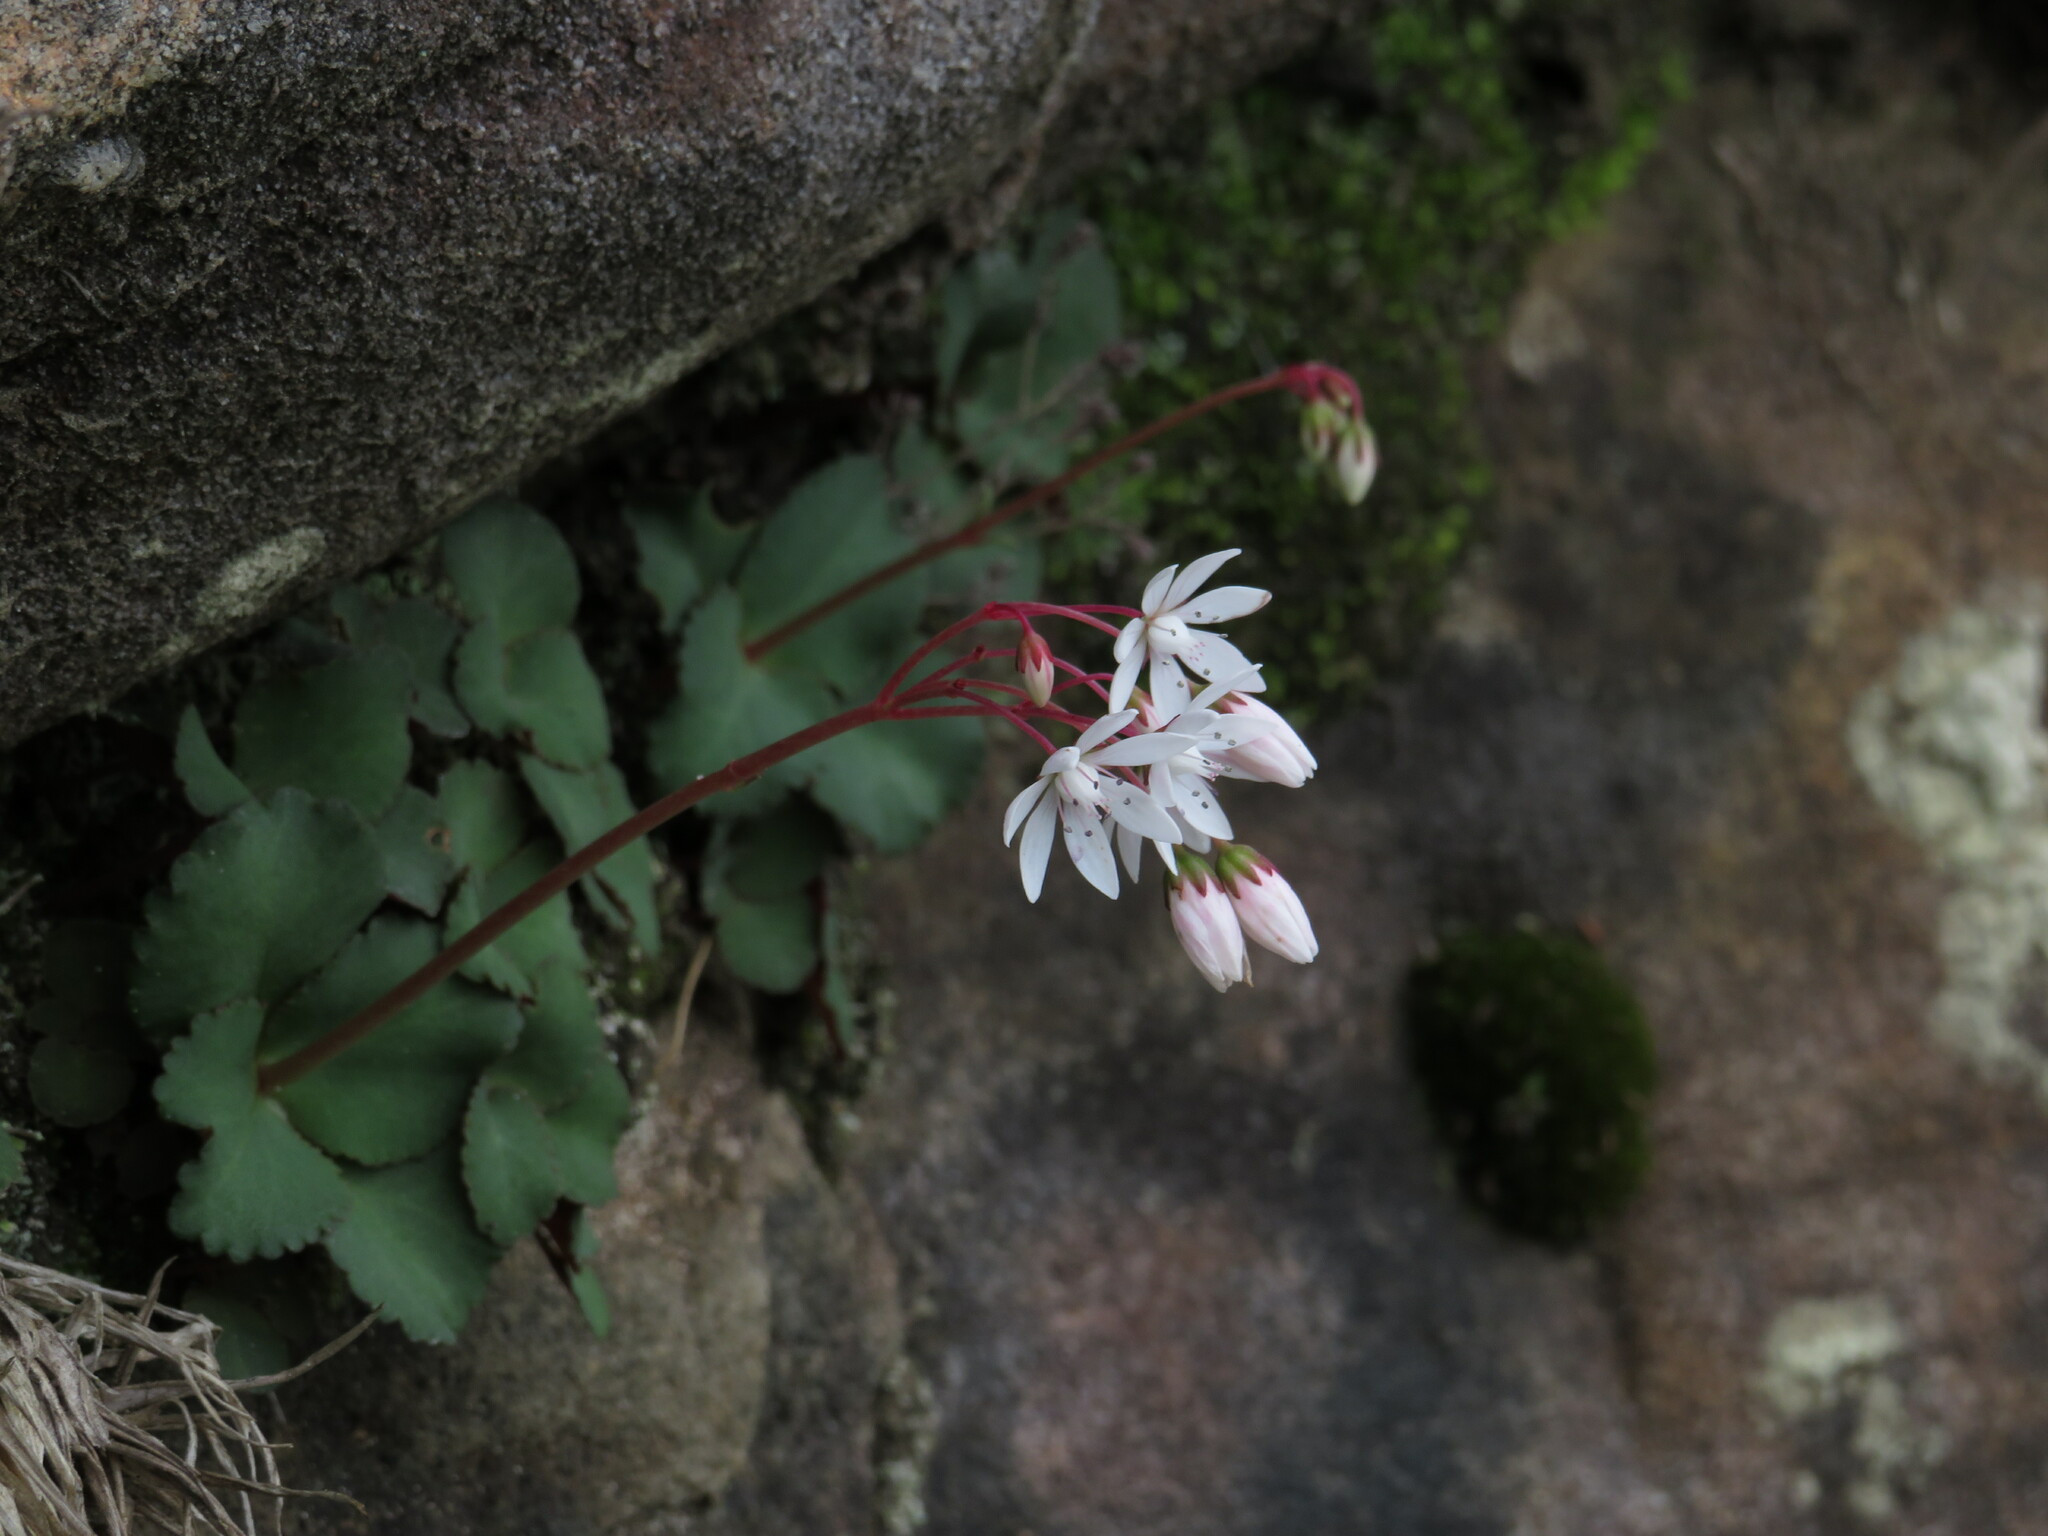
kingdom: Plantae
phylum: Tracheophyta
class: Magnoliopsida
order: Saxifragales
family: Crassulaceae
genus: Crassula
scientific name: Crassula capensis
